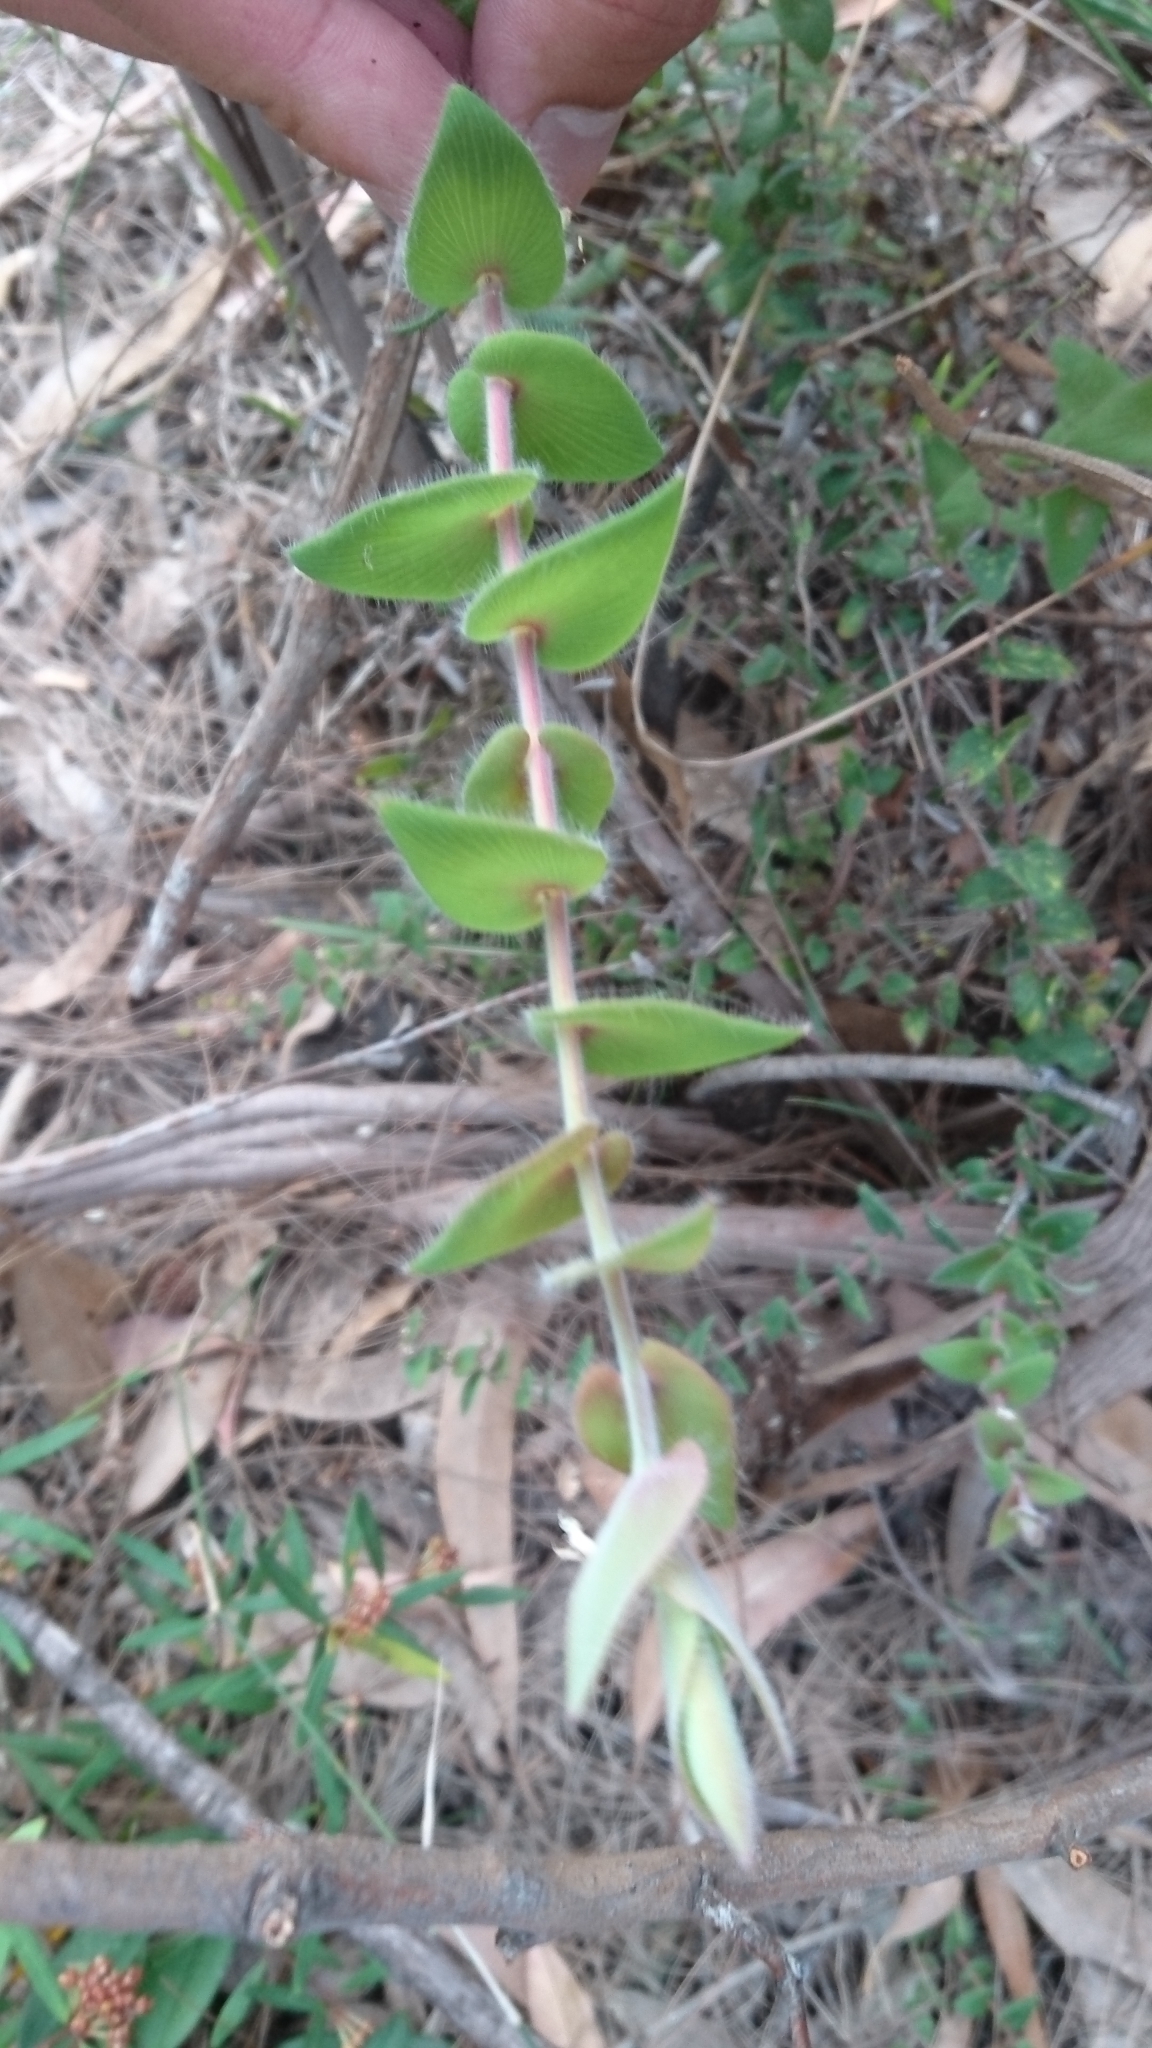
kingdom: Plantae
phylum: Tracheophyta
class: Magnoliopsida
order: Ericales
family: Ericaceae
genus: Leucopogon
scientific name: Leucopogon amplexicaulis
